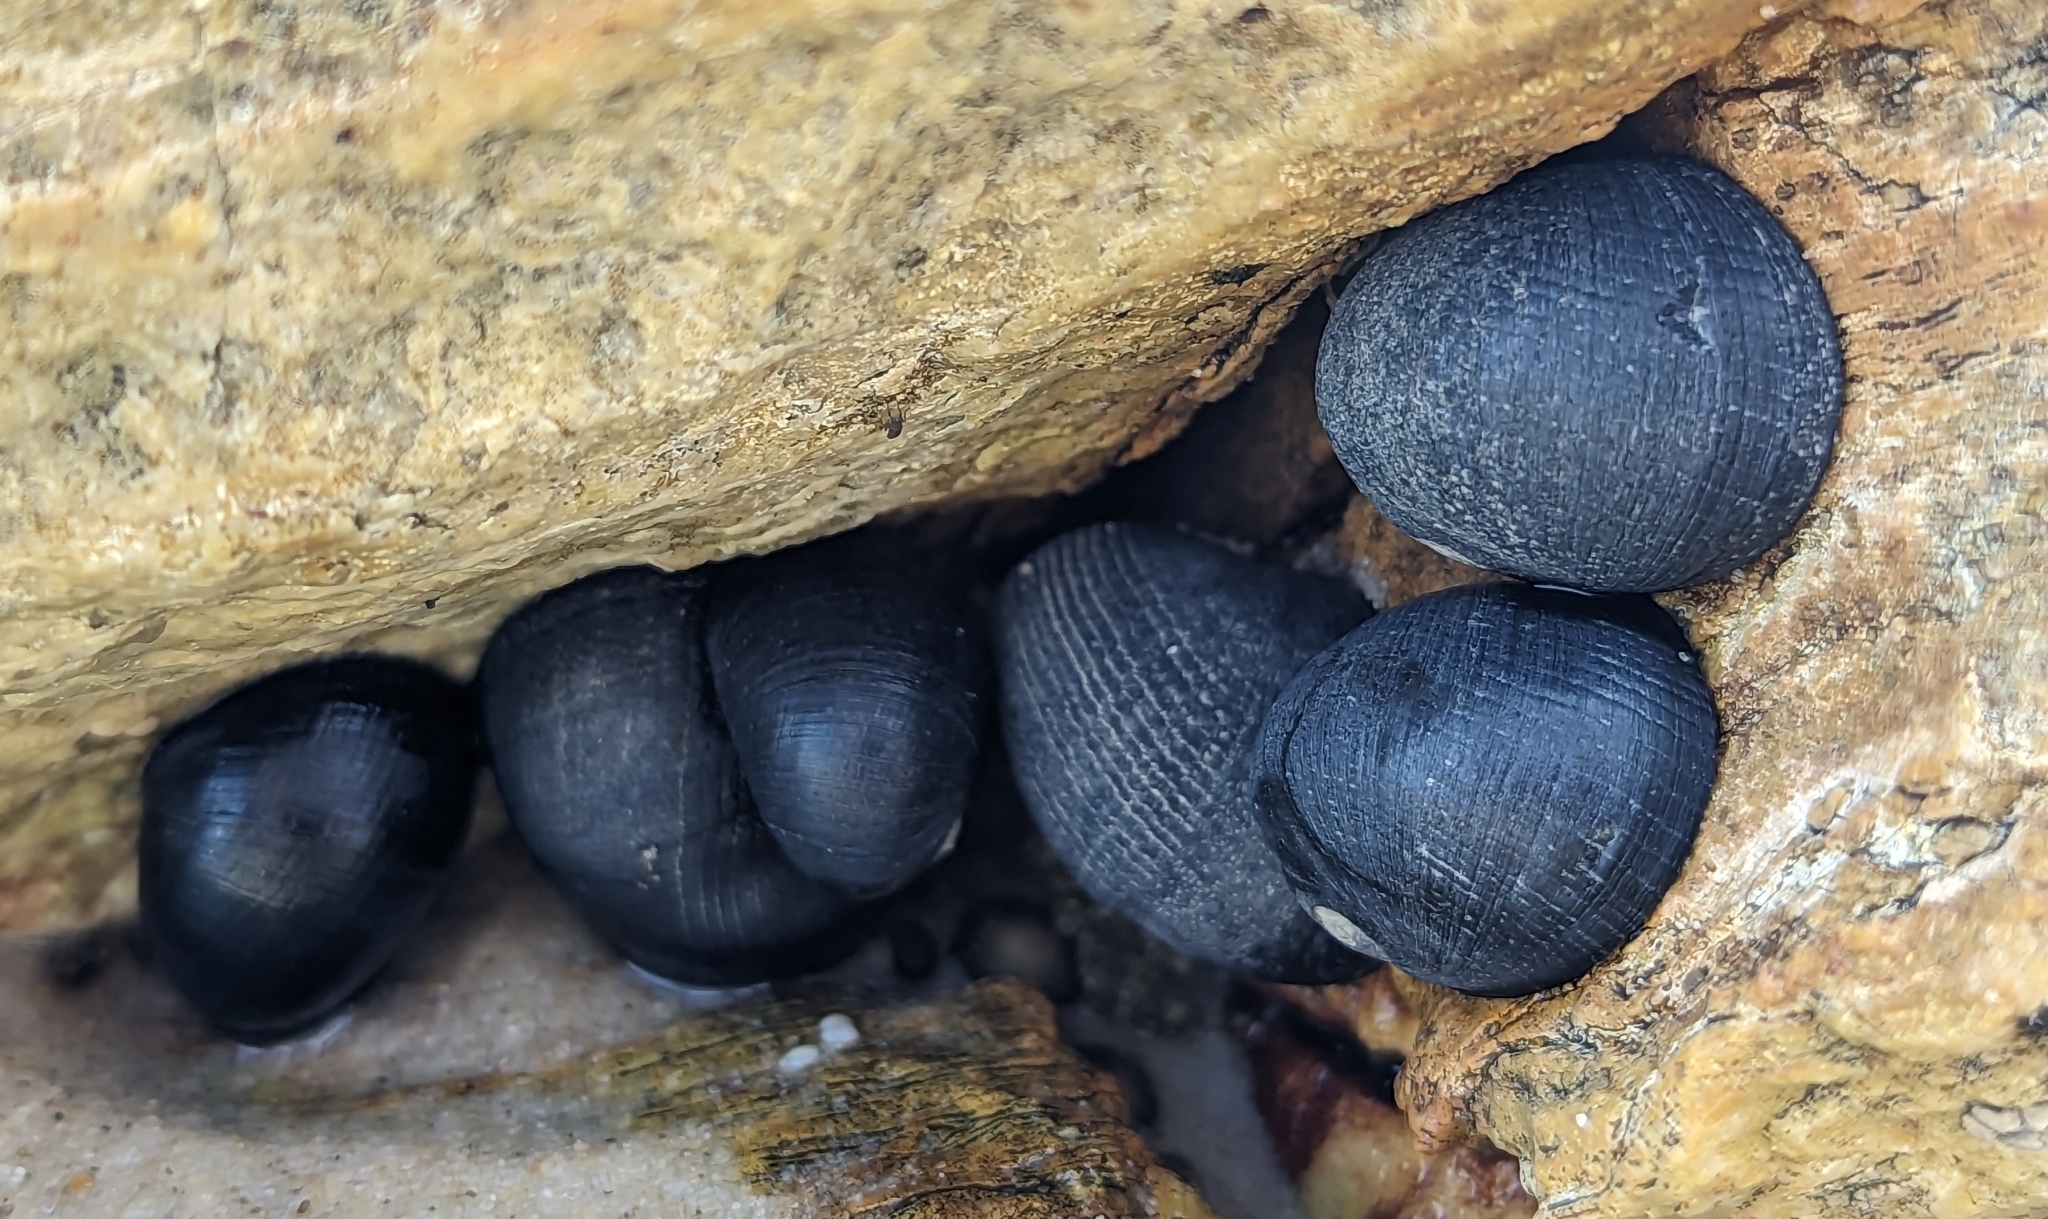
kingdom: Animalia
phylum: Mollusca
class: Gastropoda
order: Cycloneritida
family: Neritidae
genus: Nerita
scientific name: Nerita melanotragus
